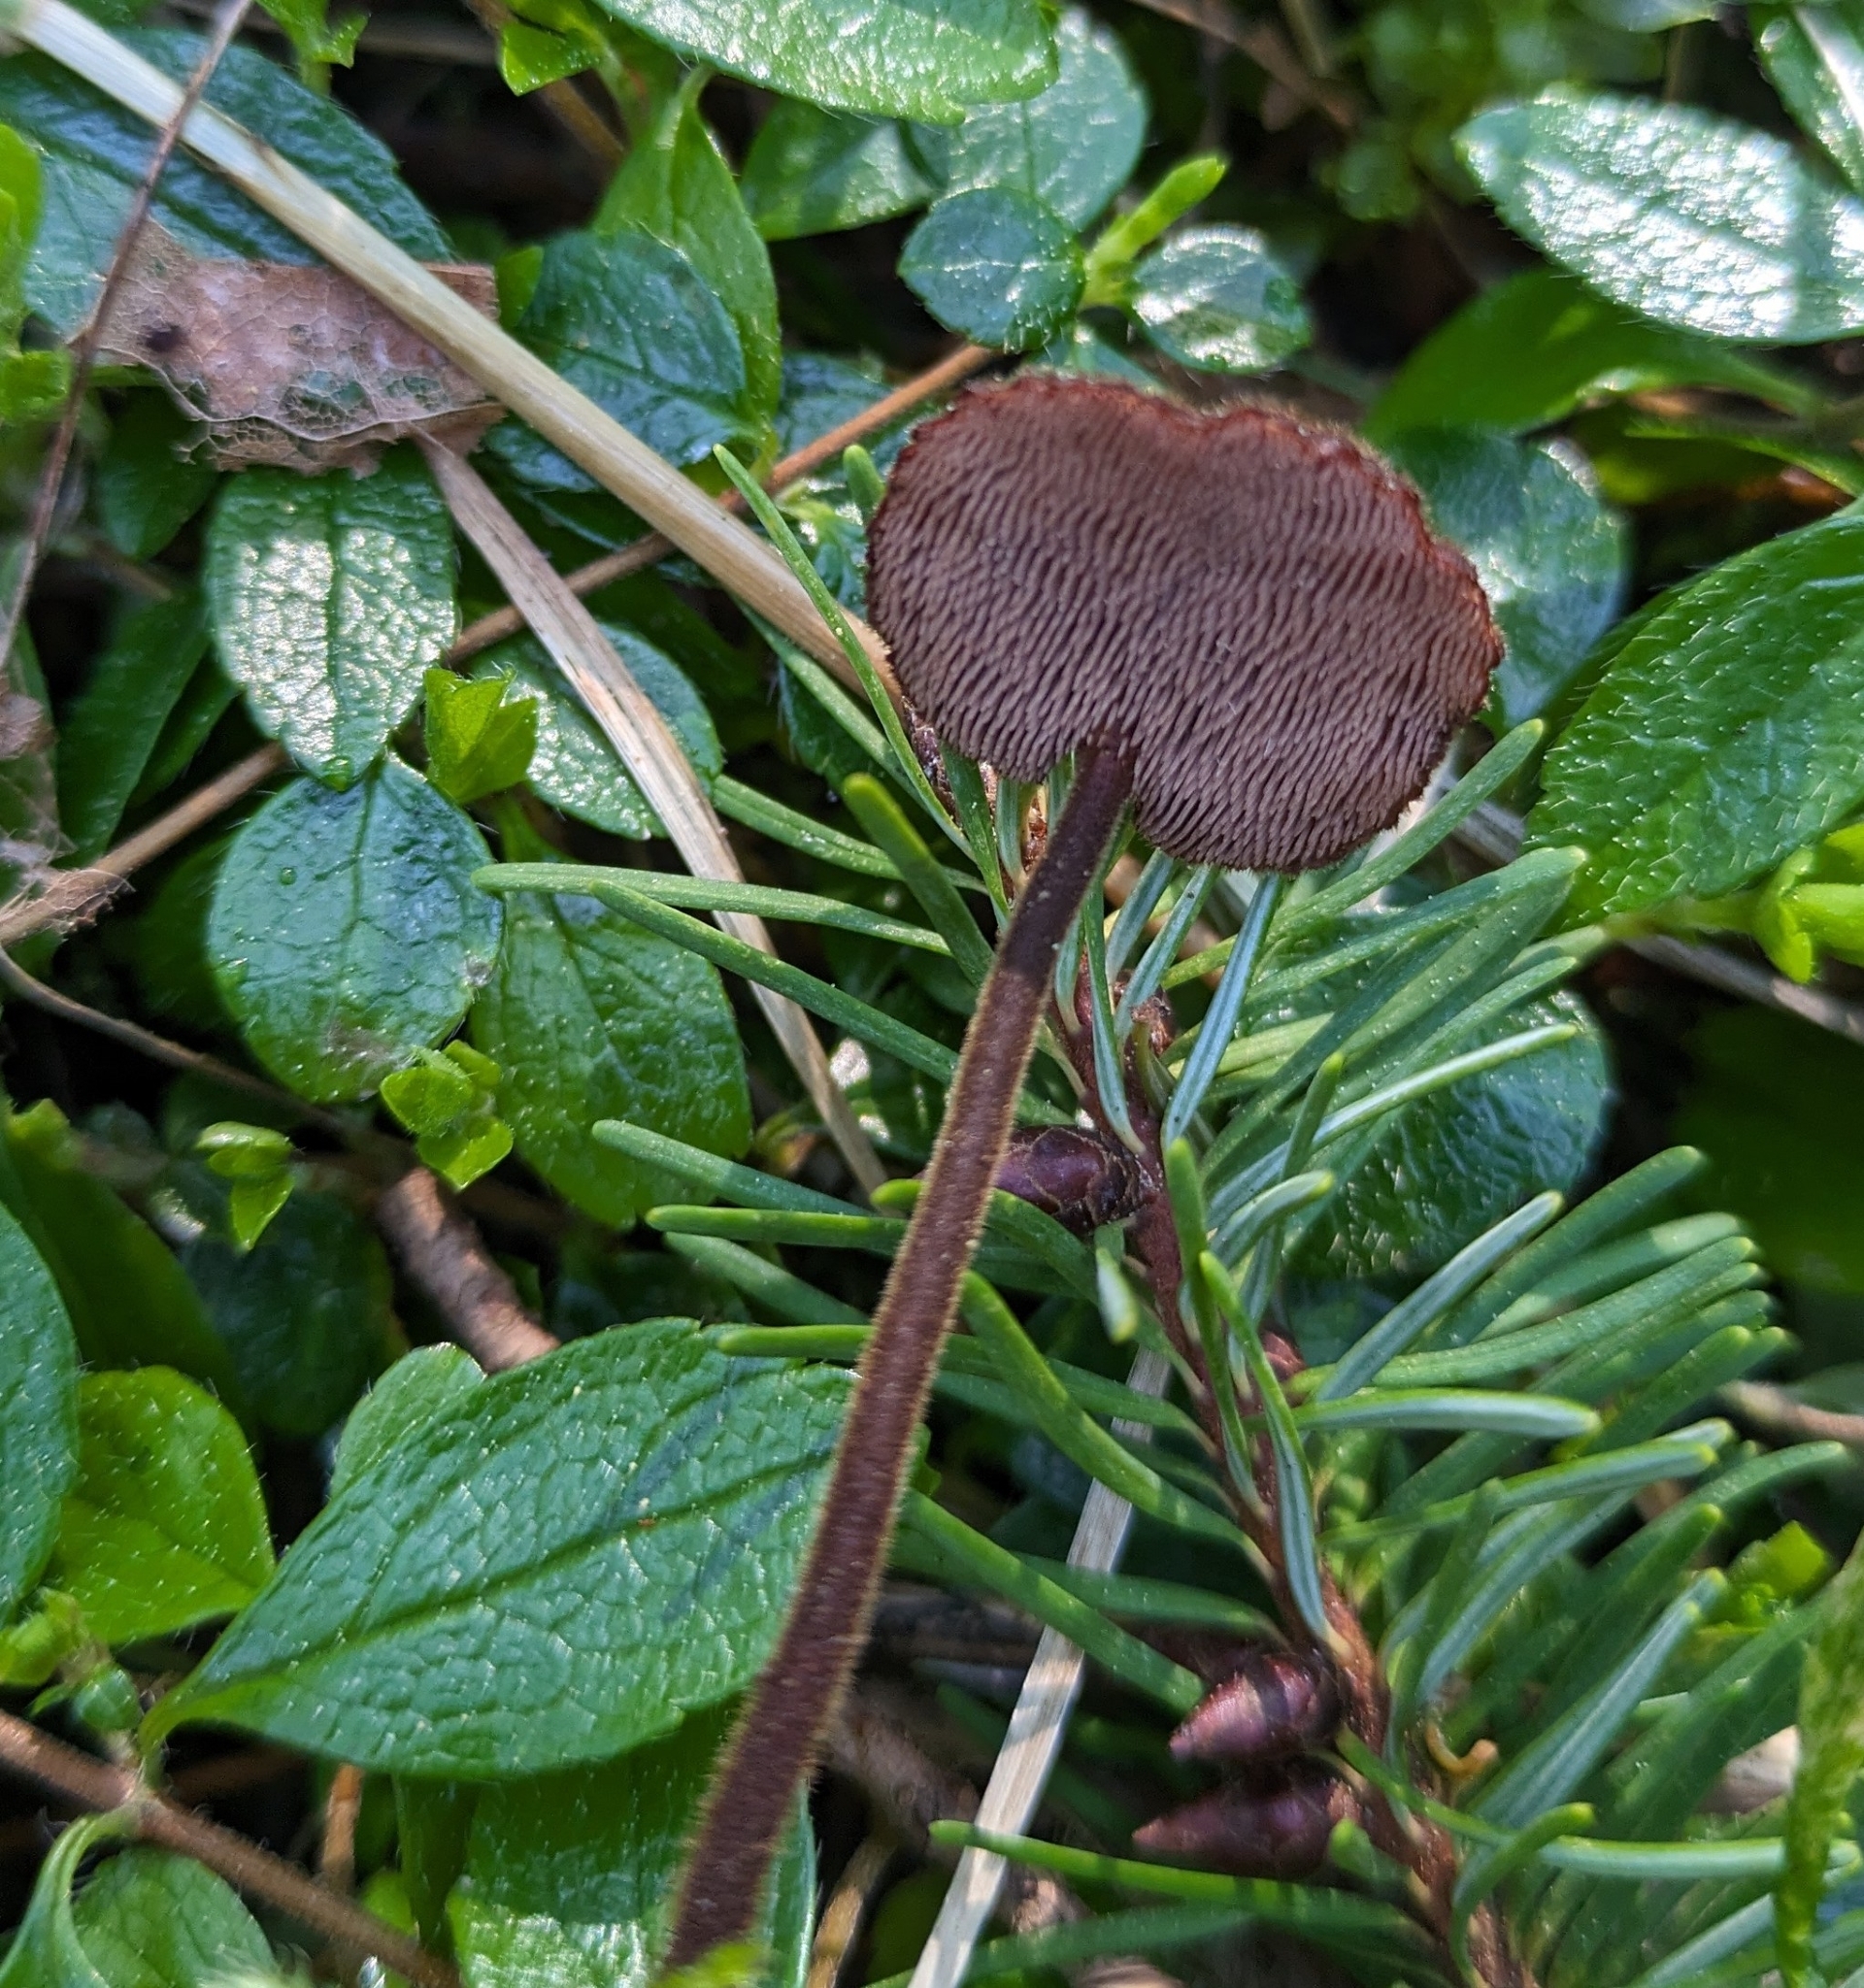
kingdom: Fungi
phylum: Basidiomycota
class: Agaricomycetes
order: Russulales
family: Auriscalpiaceae
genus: Auriscalpium
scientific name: Auriscalpium vulgare
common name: Earpick fungus
